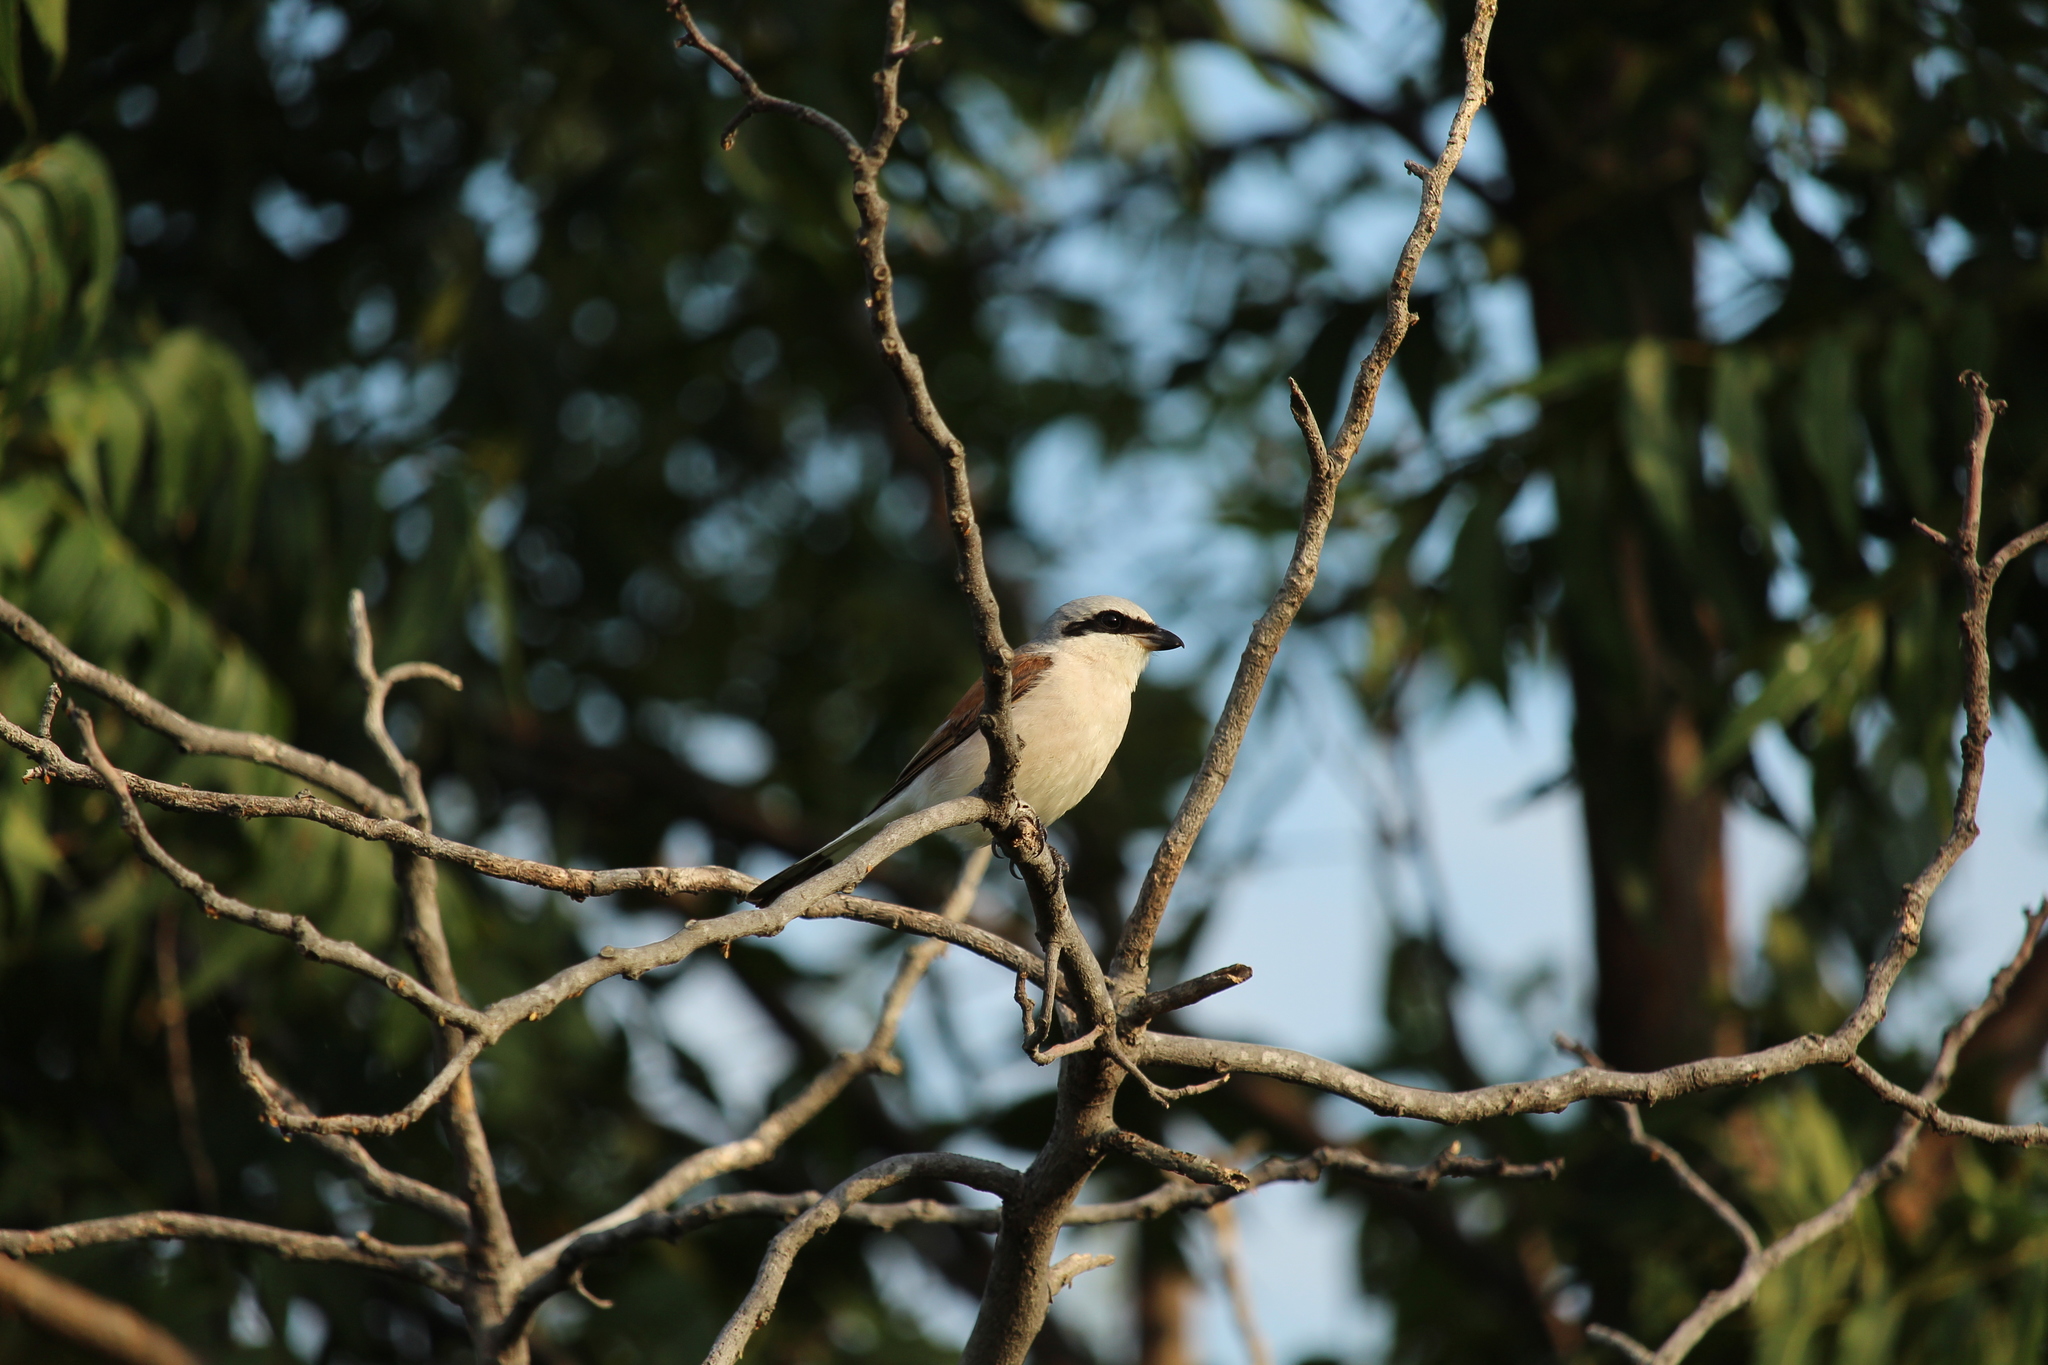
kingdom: Animalia
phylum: Chordata
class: Aves
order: Passeriformes
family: Laniidae
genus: Lanius
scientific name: Lanius collurio
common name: Red-backed shrike
